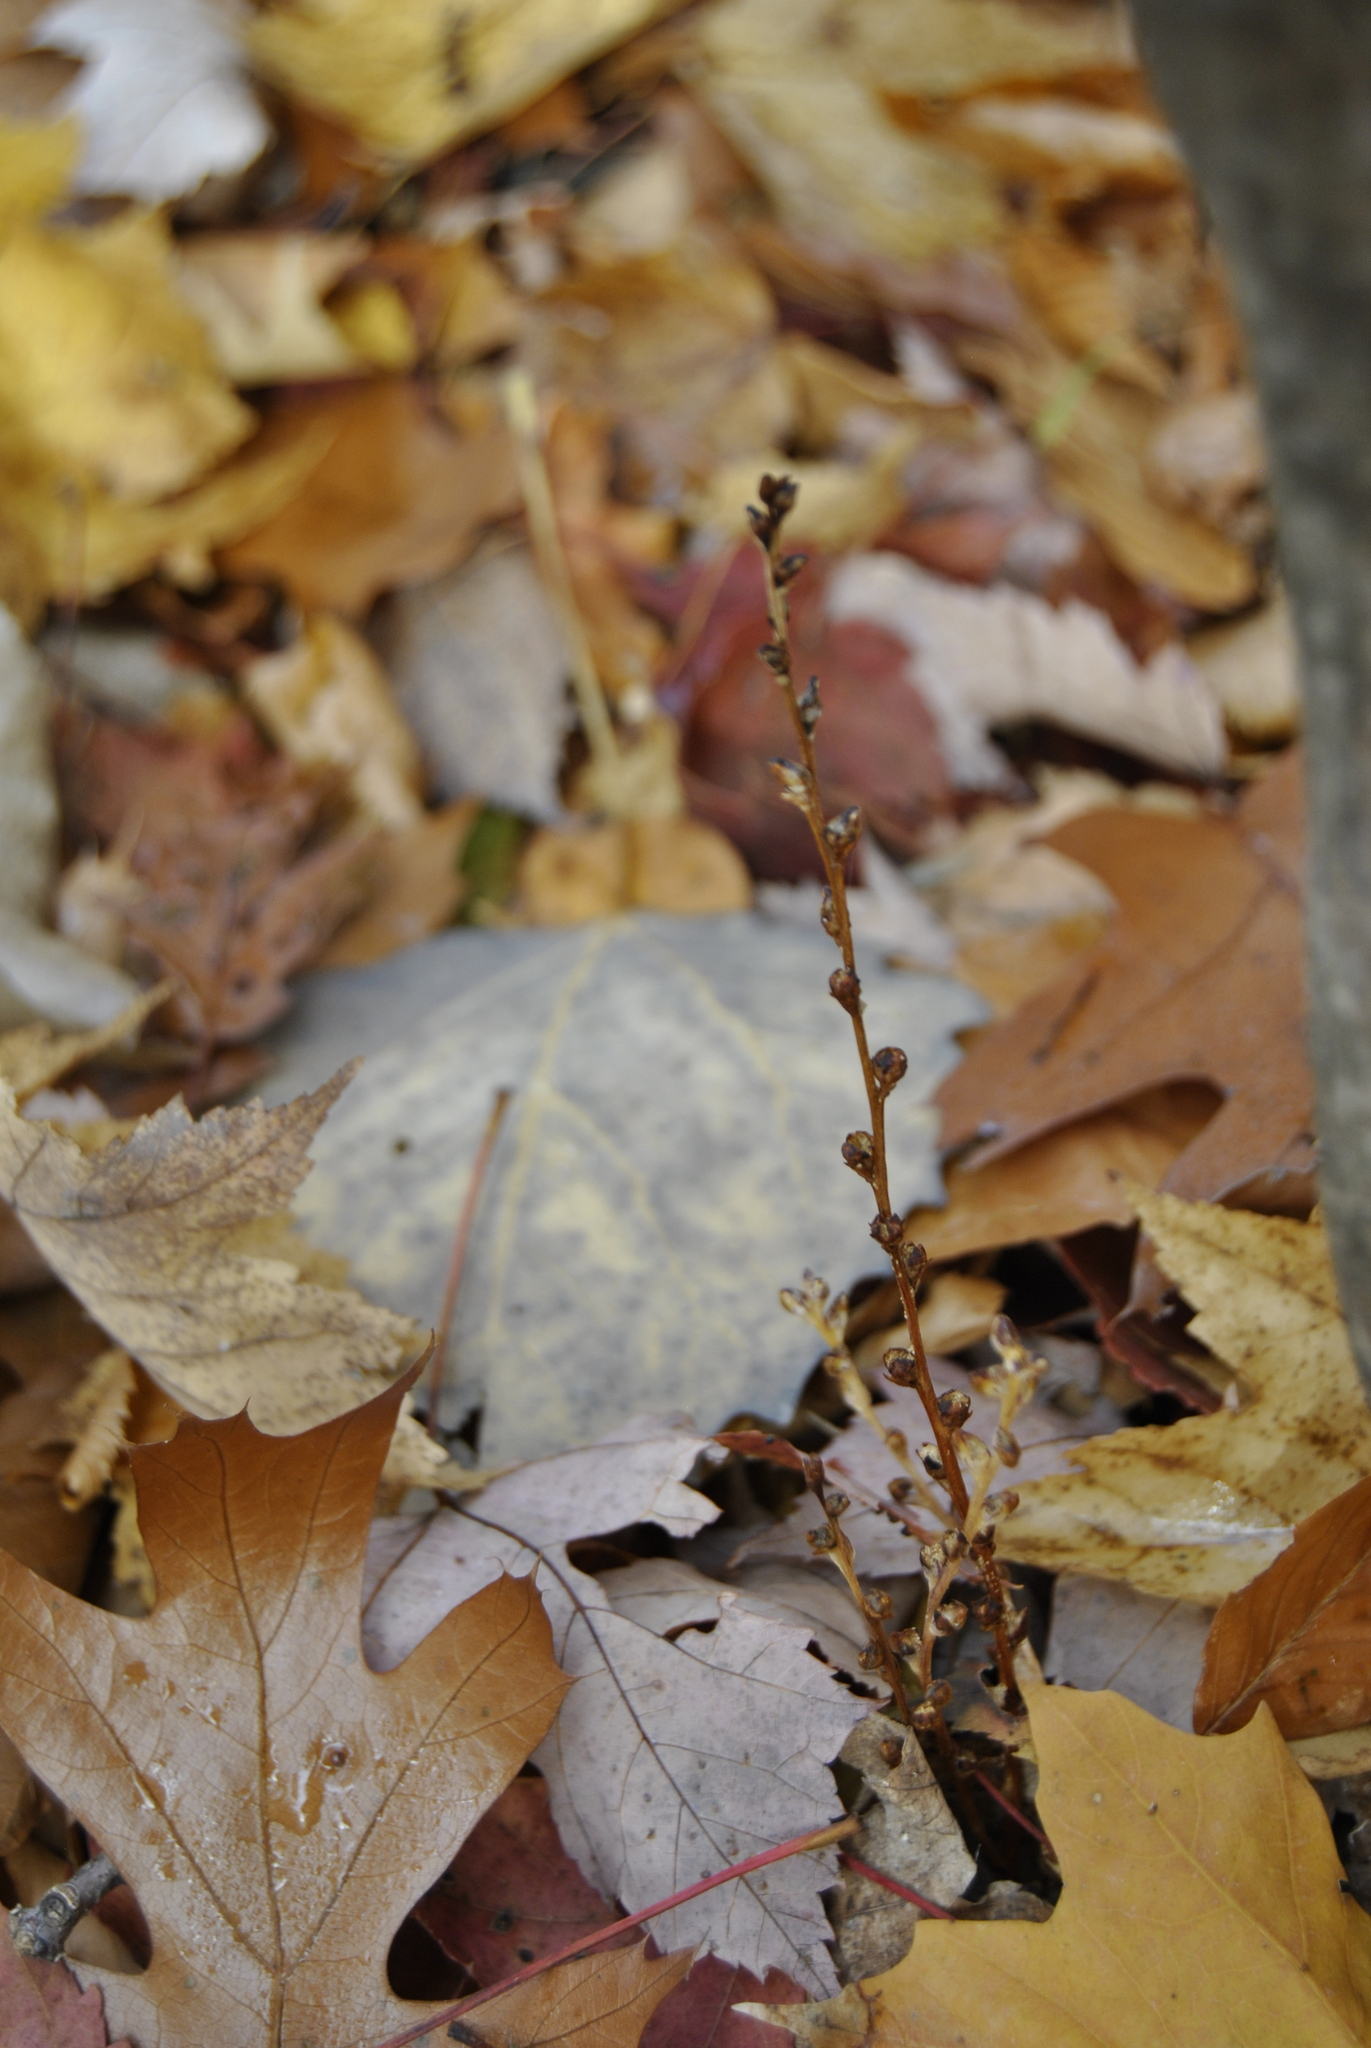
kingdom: Plantae
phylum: Tracheophyta
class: Magnoliopsida
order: Lamiales
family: Orobanchaceae
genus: Epifagus
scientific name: Epifagus virginiana
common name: Beechdrops
